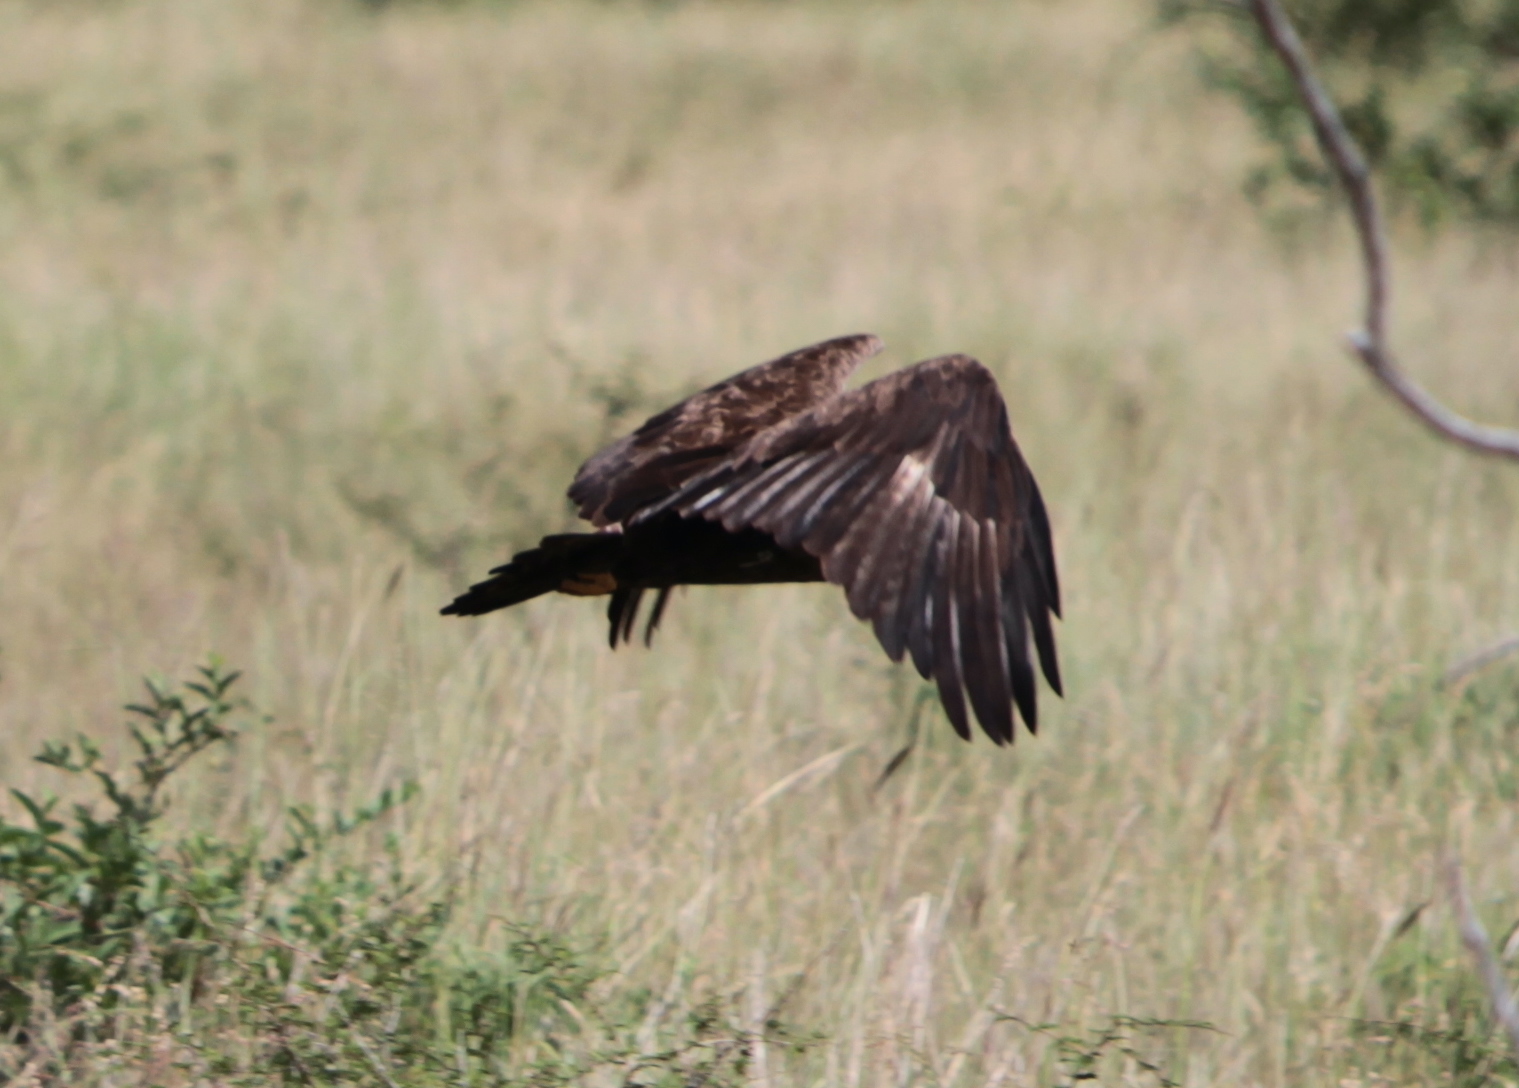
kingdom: Animalia
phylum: Chordata
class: Aves
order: Accipitriformes
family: Accipitridae
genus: Aquila
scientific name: Aquila nipalensis
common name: Steppe eagle
